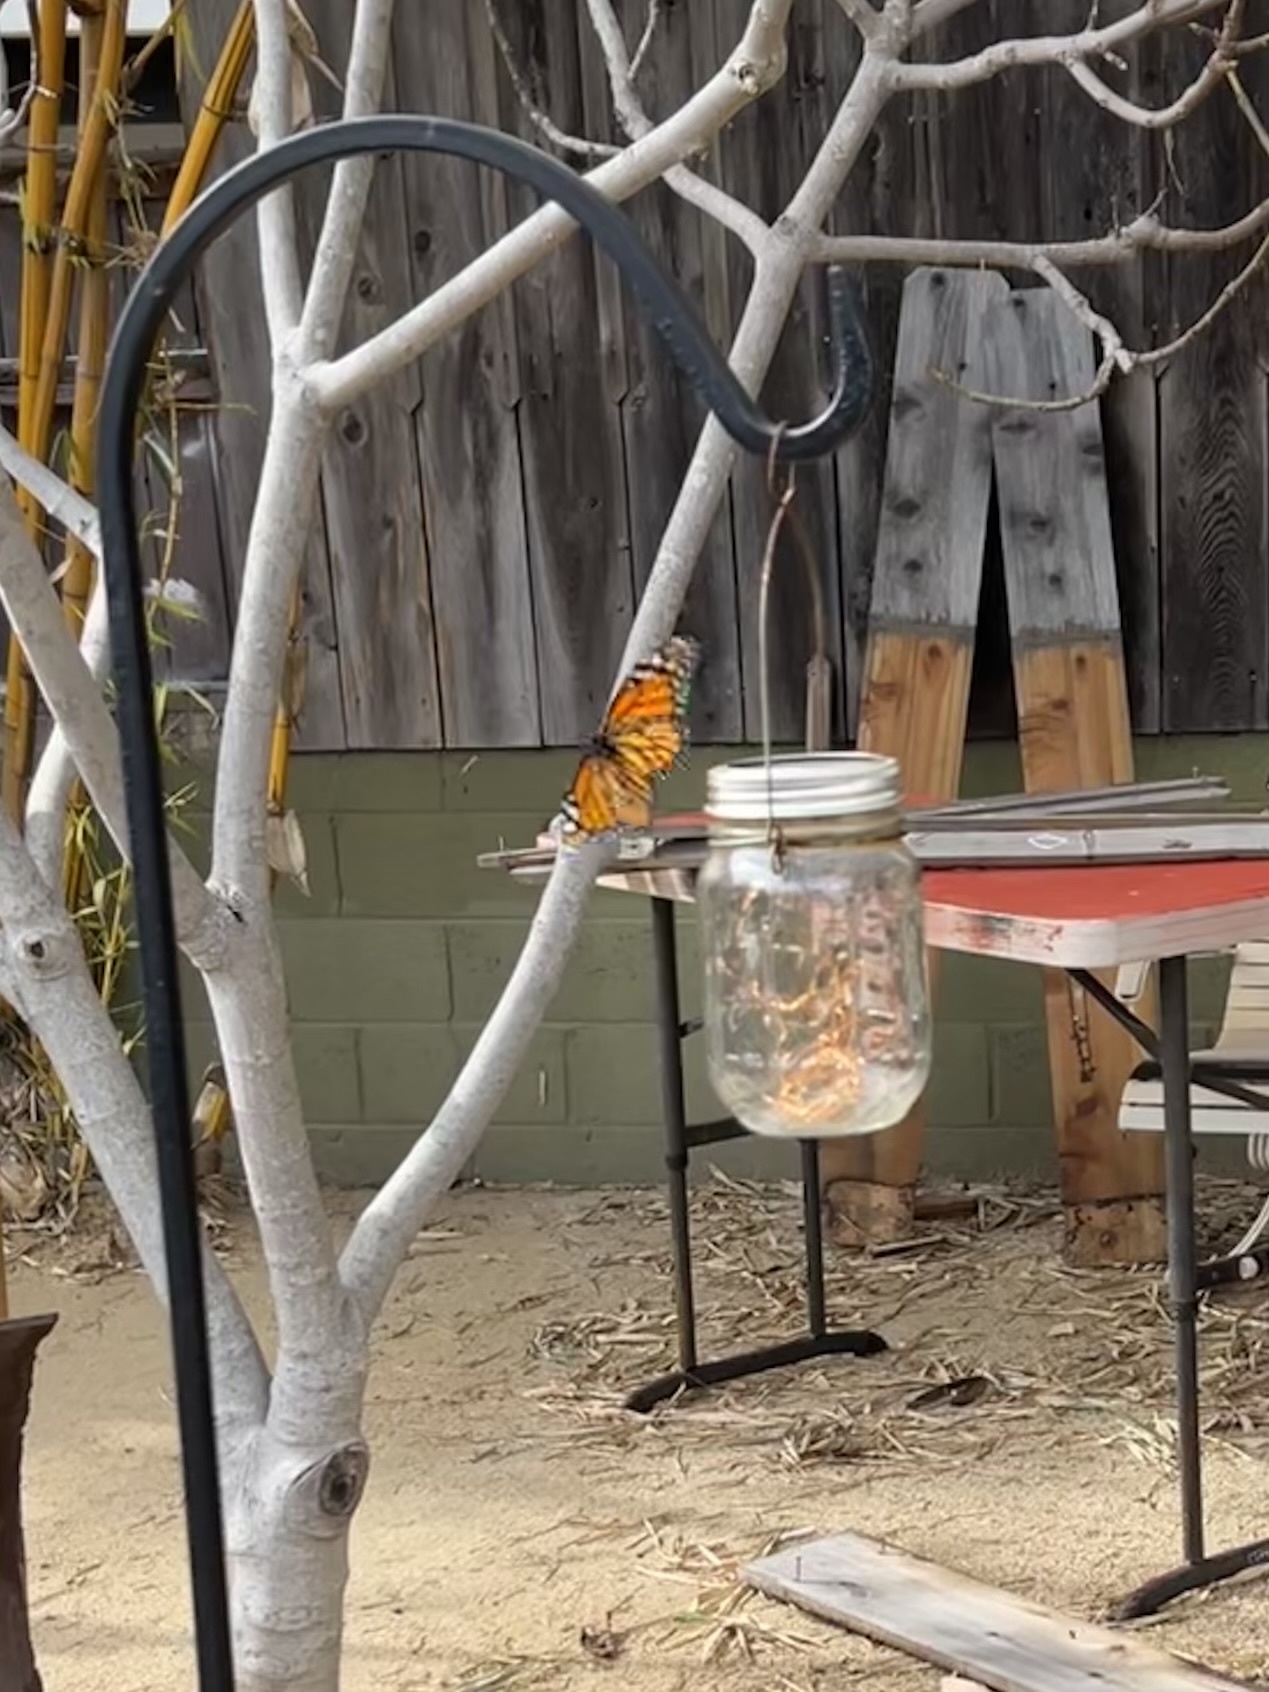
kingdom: Animalia
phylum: Arthropoda
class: Insecta
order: Lepidoptera
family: Nymphalidae
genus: Danaus
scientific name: Danaus plexippus
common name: Monarch
